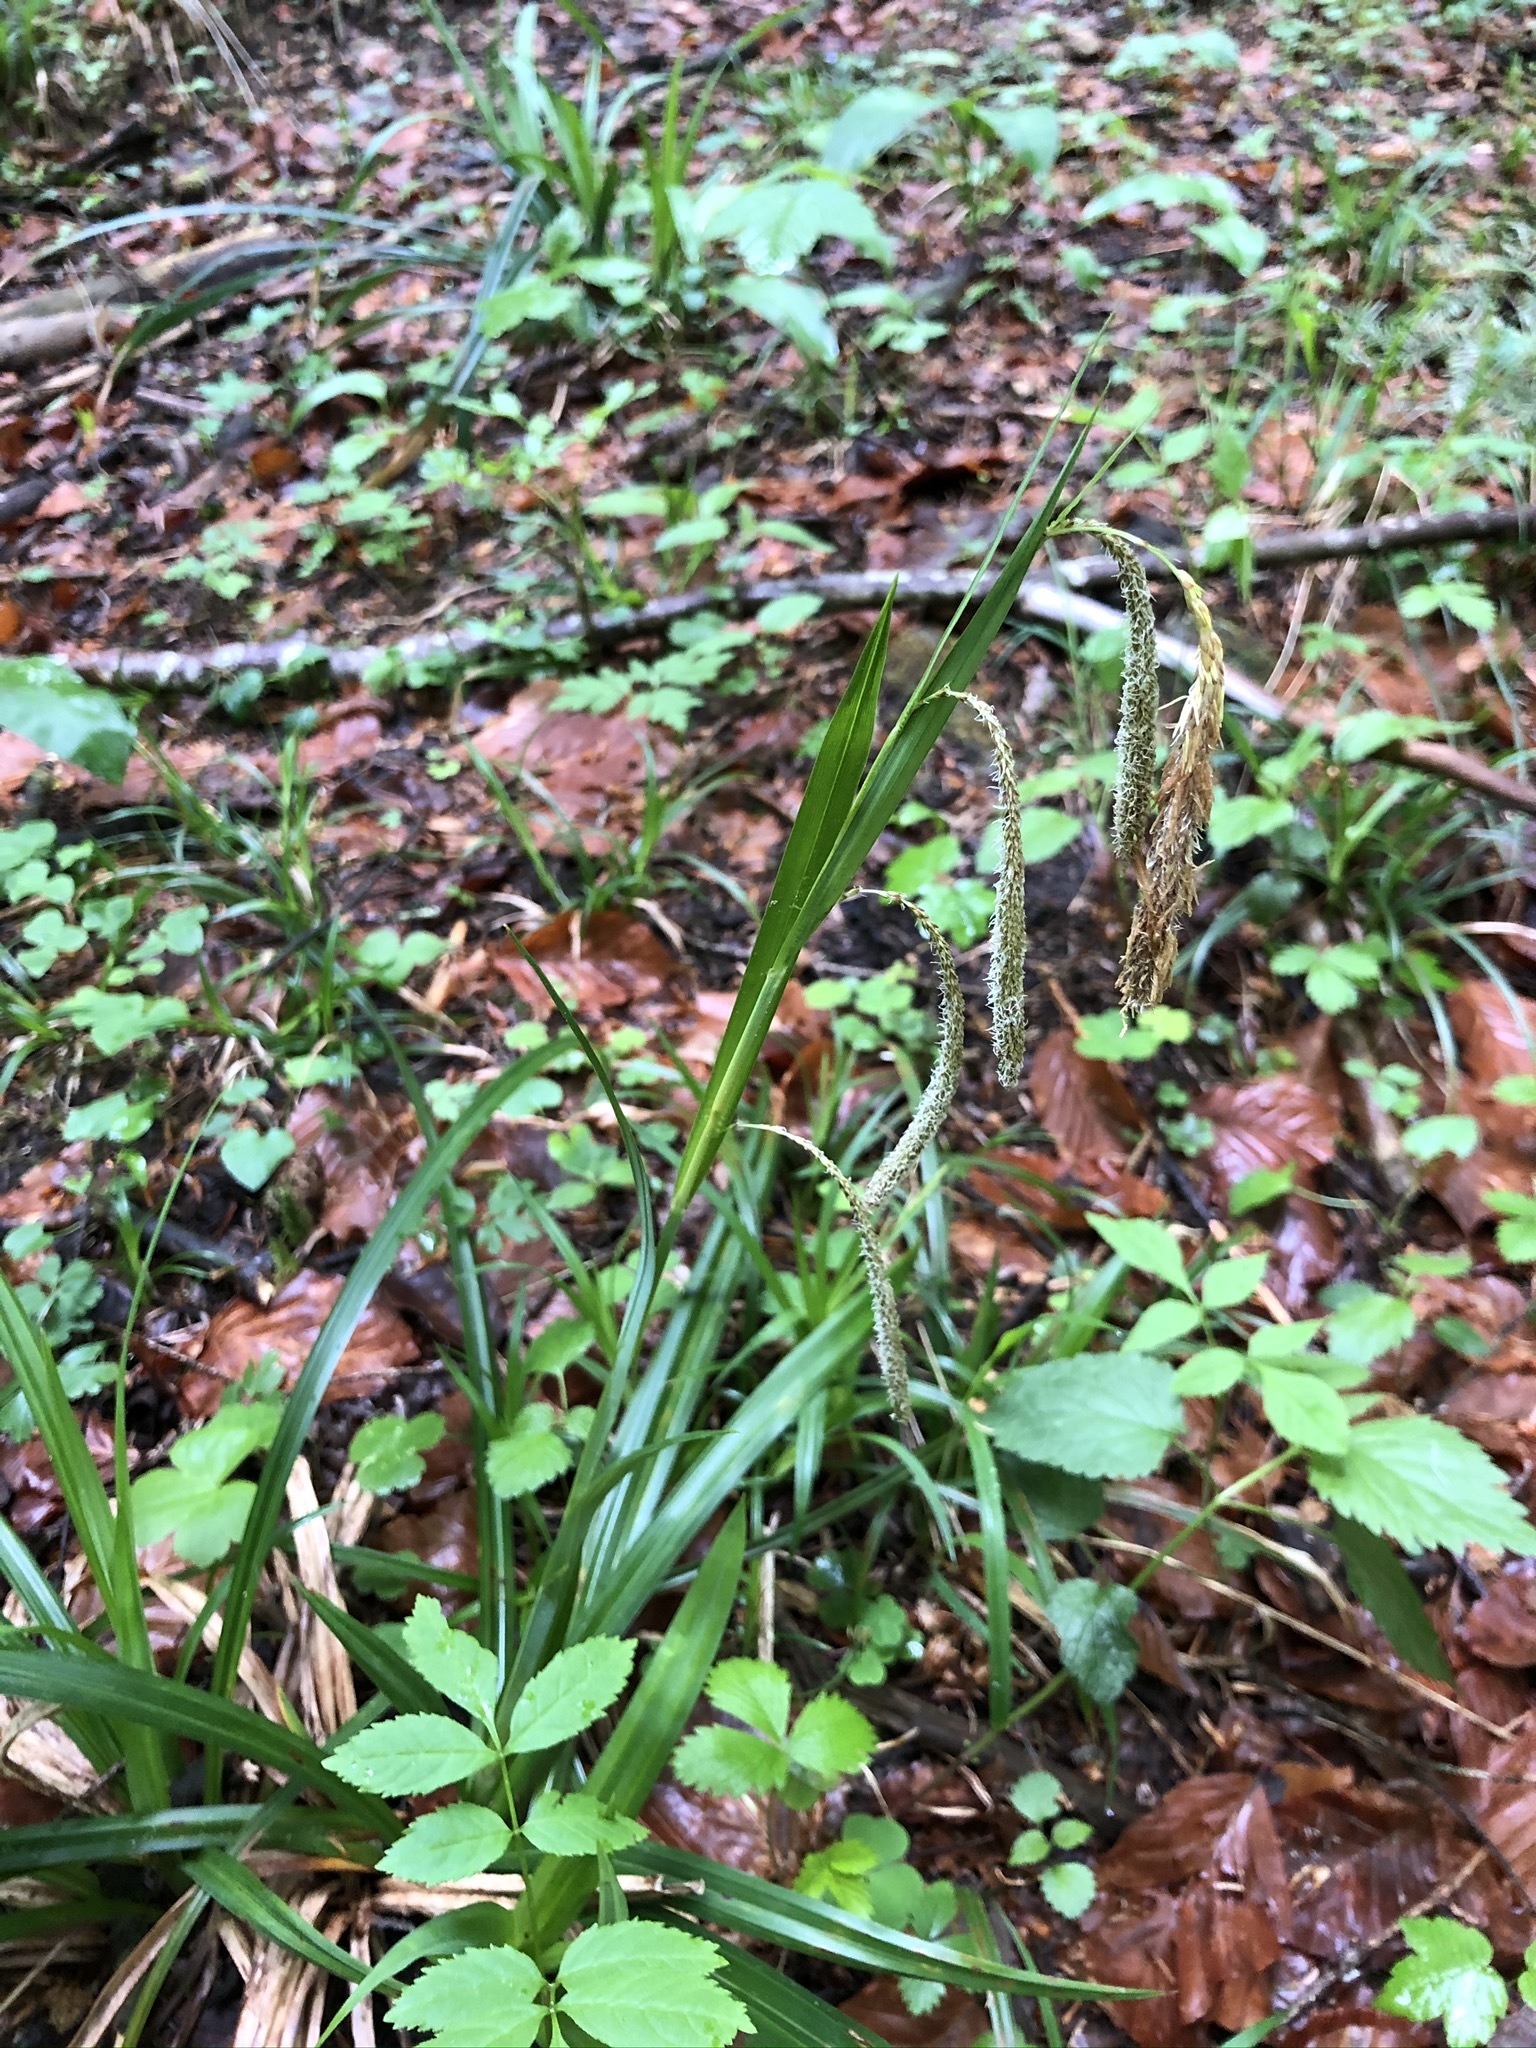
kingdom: Plantae
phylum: Tracheophyta
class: Liliopsida
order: Poales
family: Cyperaceae
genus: Carex
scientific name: Carex agastachys
